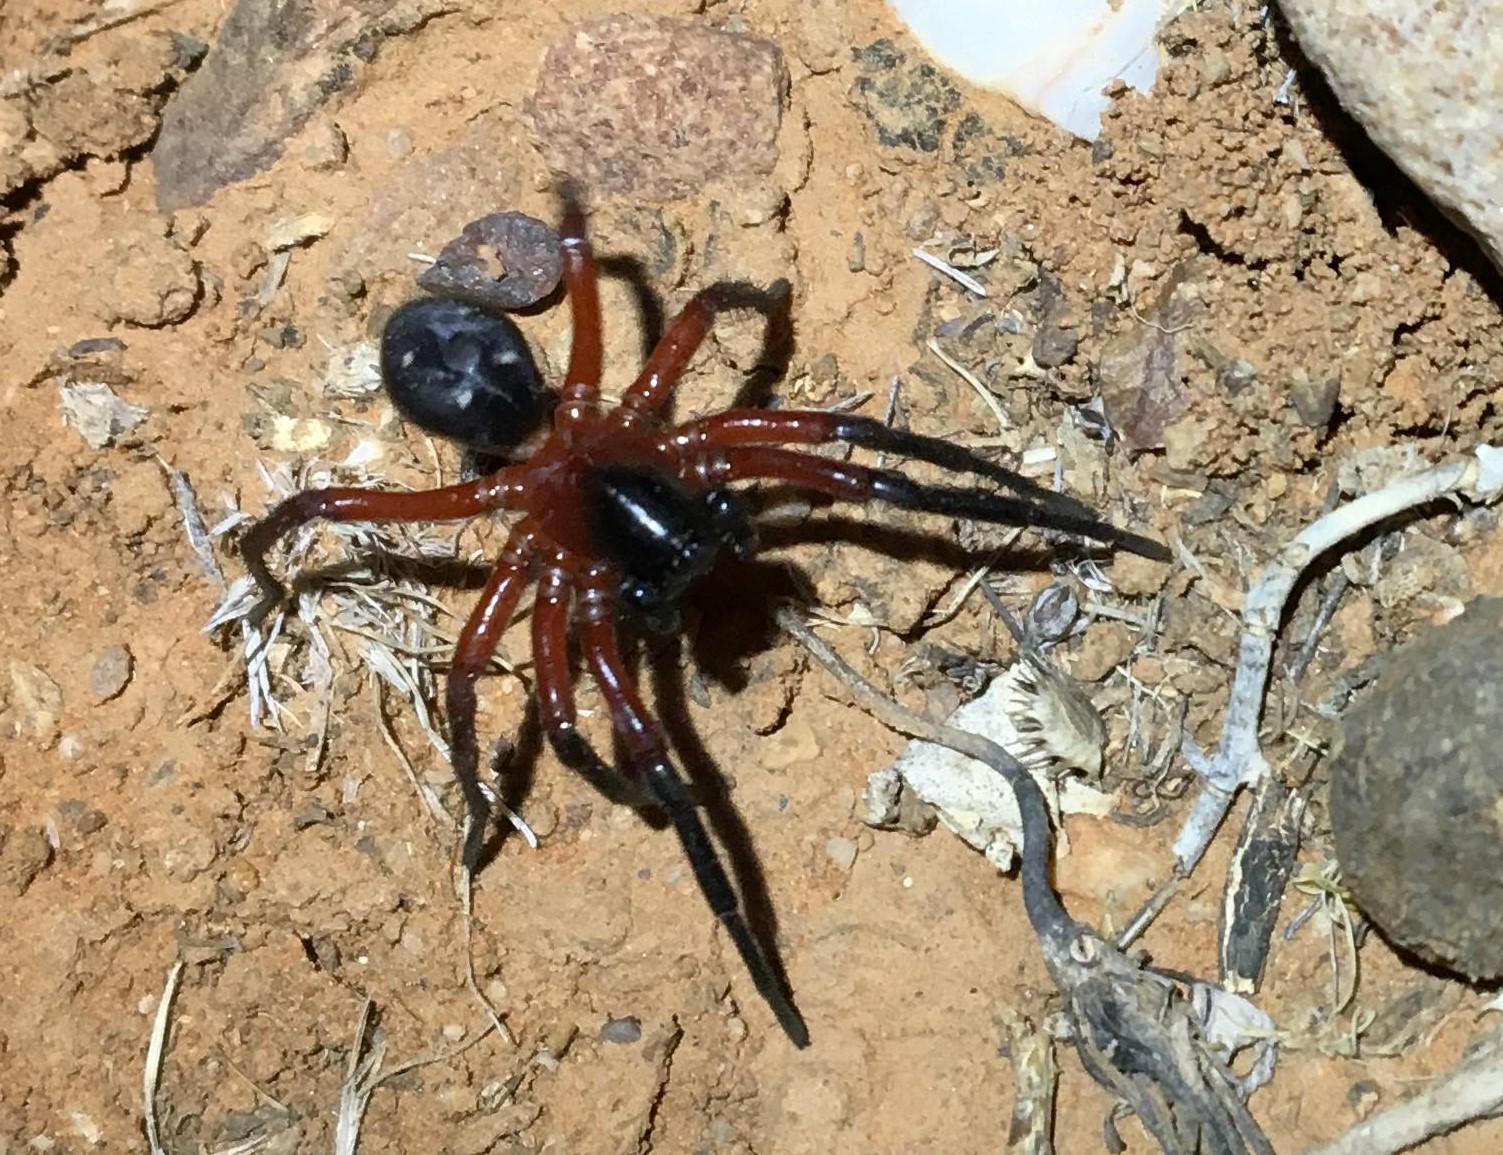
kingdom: Animalia
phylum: Arthropoda
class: Arachnida
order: Araneae
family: Zodariidae
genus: Storena
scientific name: Storena
